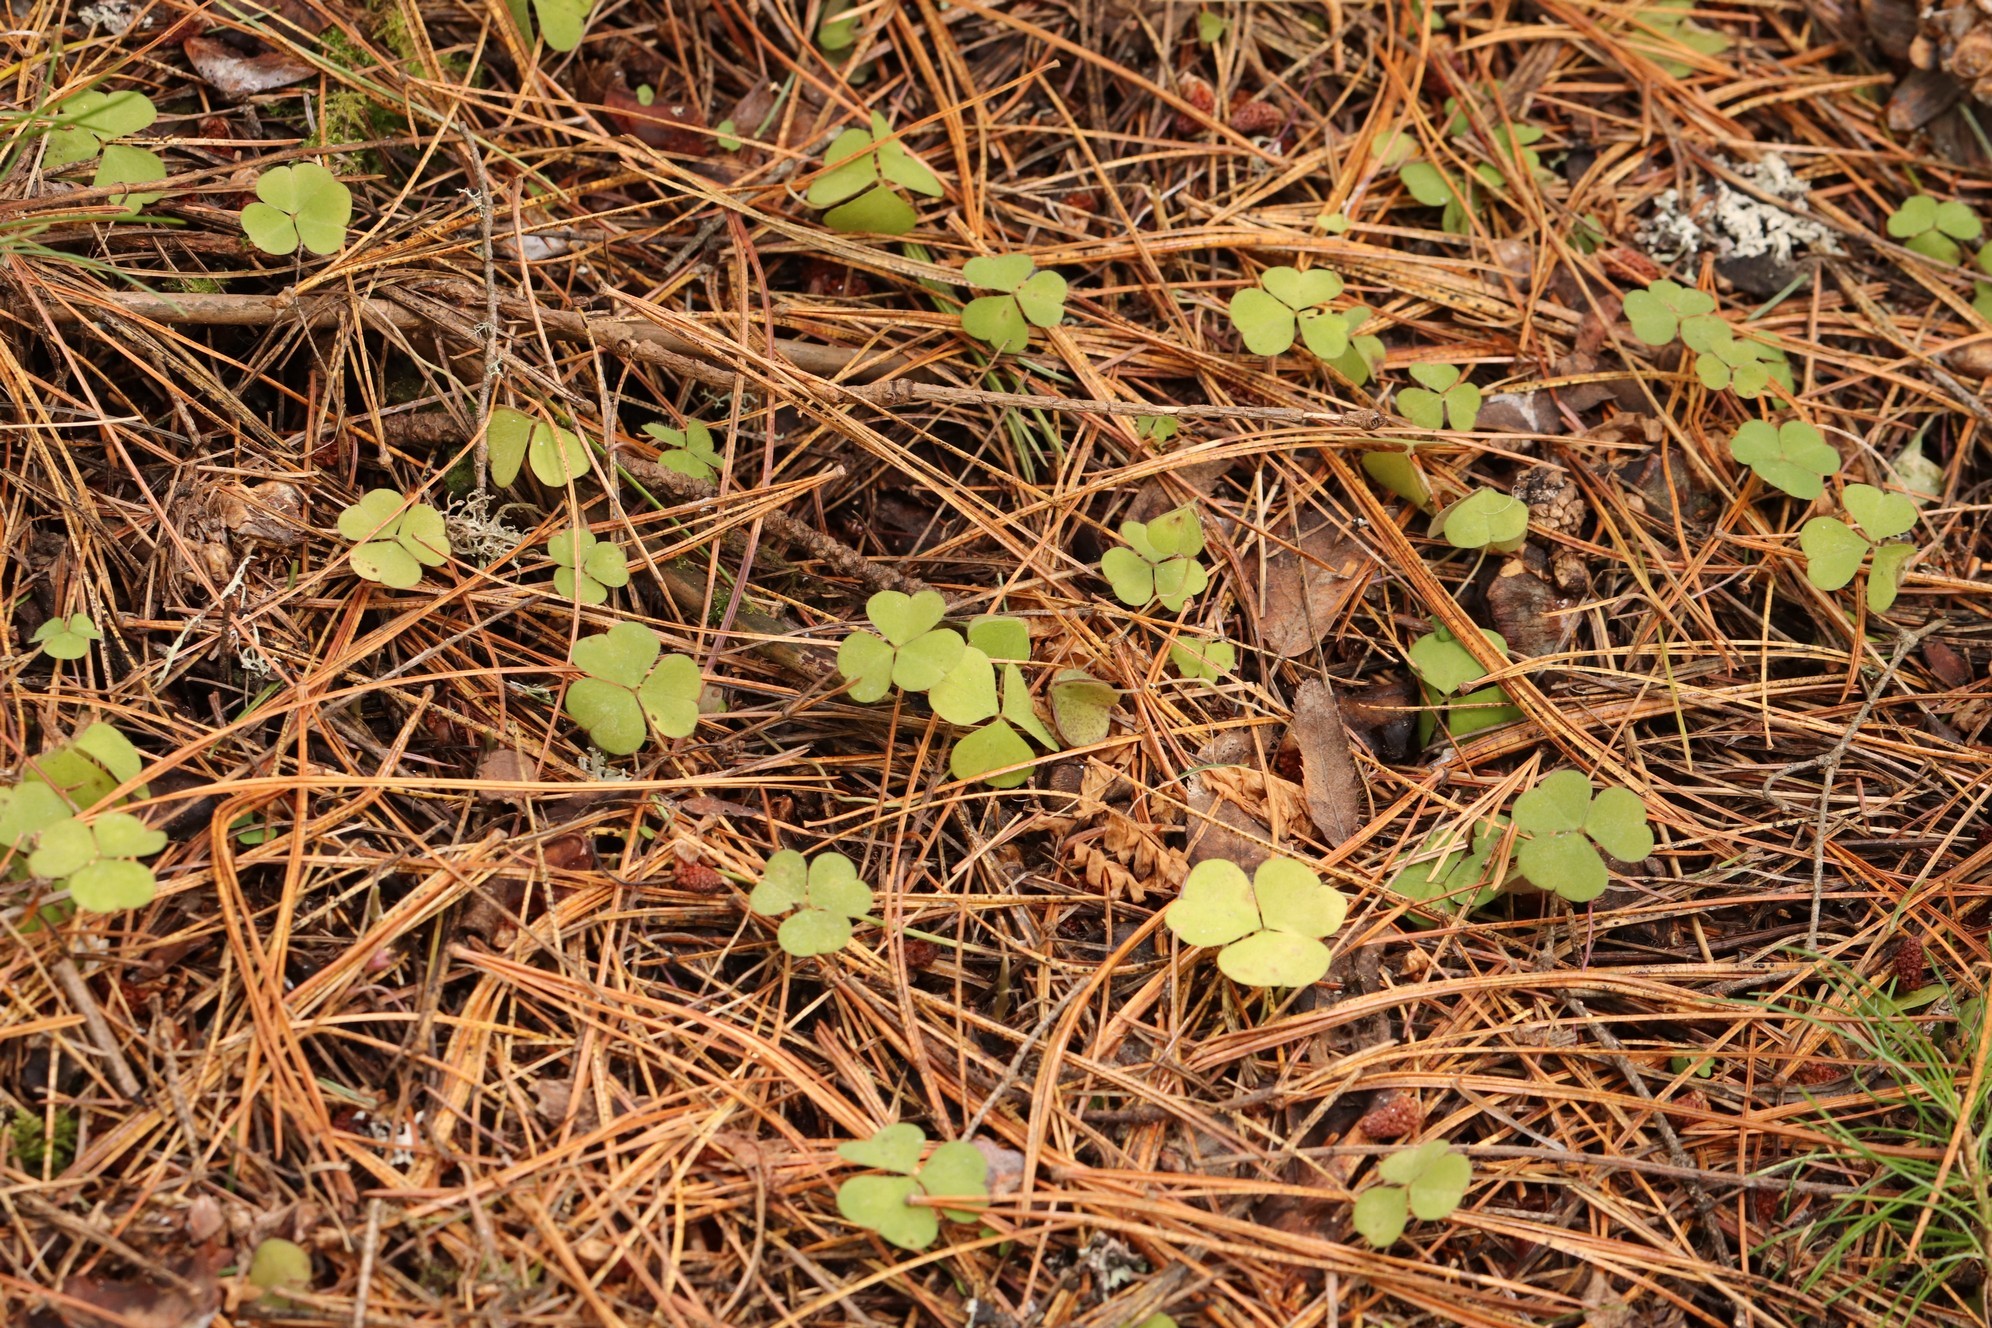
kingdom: Plantae
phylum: Tracheophyta
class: Magnoliopsida
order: Oxalidales
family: Oxalidaceae
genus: Oxalis
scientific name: Oxalis acetosella
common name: Wood-sorrel
